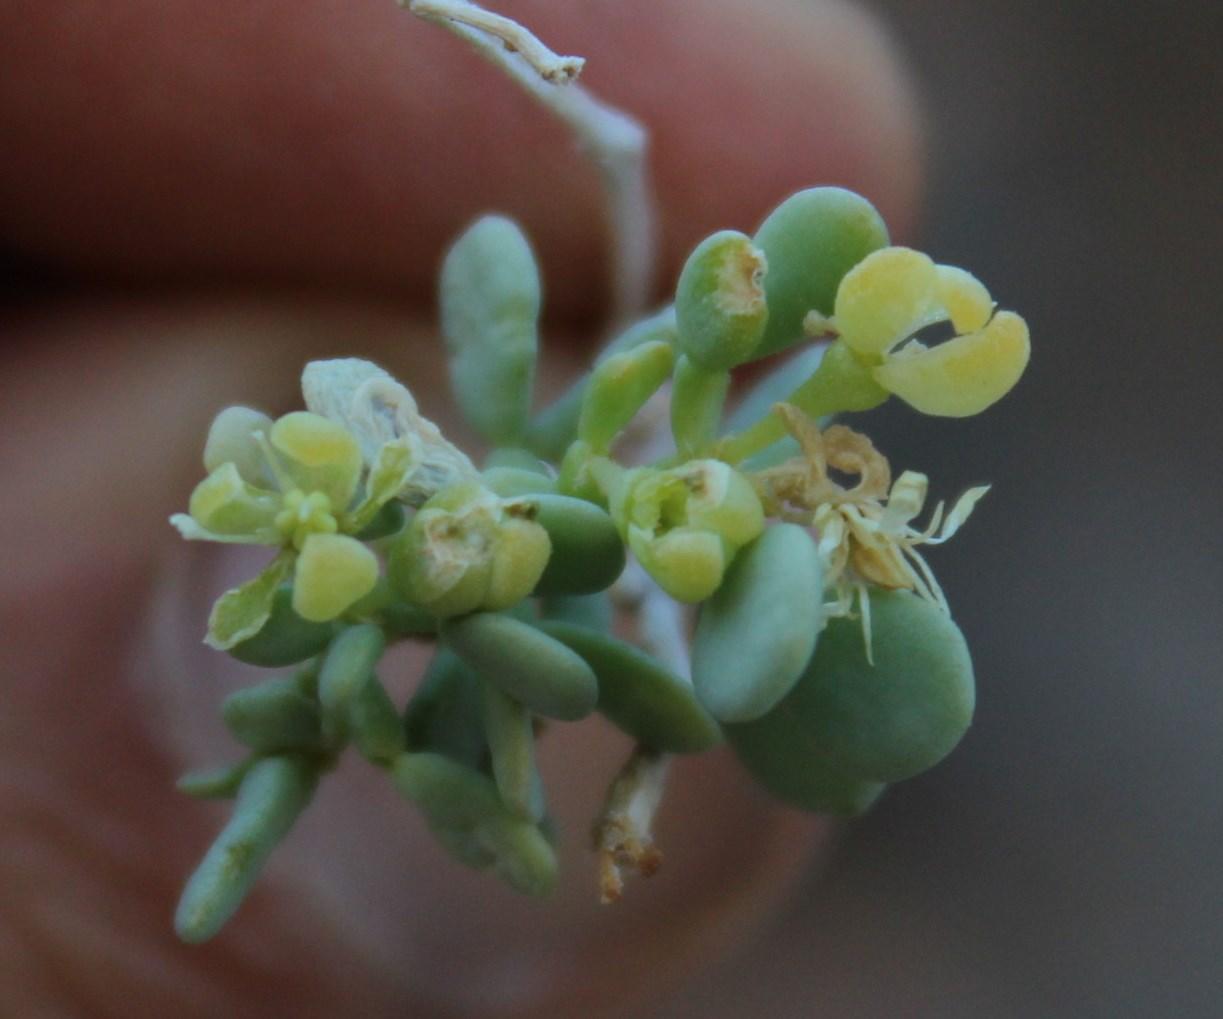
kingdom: Plantae
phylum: Tracheophyta
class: Magnoliopsida
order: Zygophyllales
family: Zygophyllaceae
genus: Tetraena
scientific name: Tetraena retrofracta
